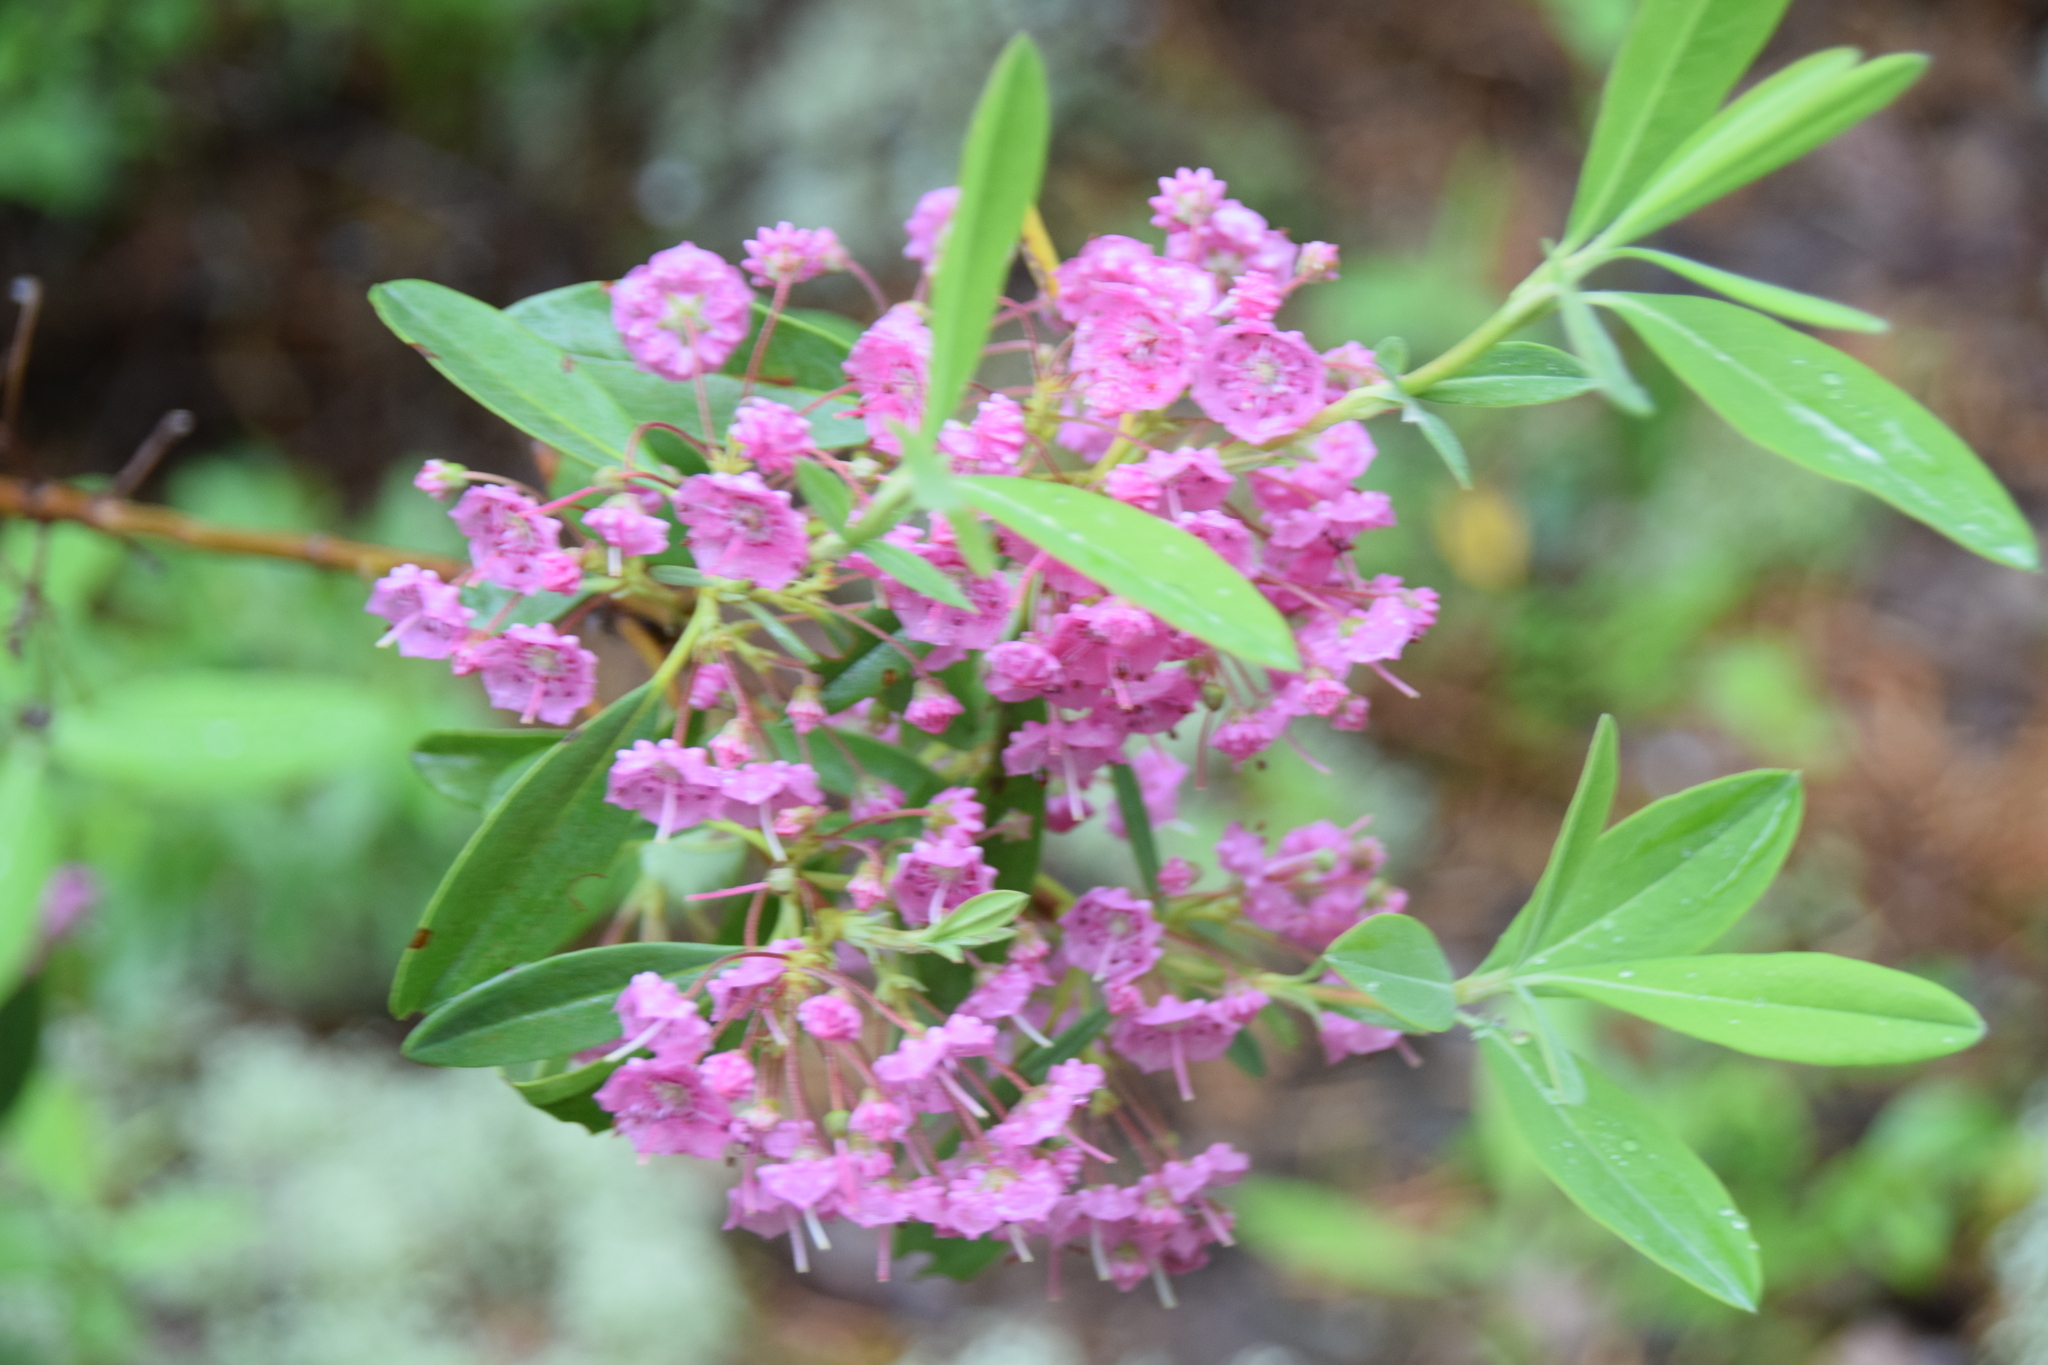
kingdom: Plantae
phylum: Tracheophyta
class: Magnoliopsida
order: Ericales
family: Ericaceae
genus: Kalmia
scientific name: Kalmia angustifolia
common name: Sheep-laurel
